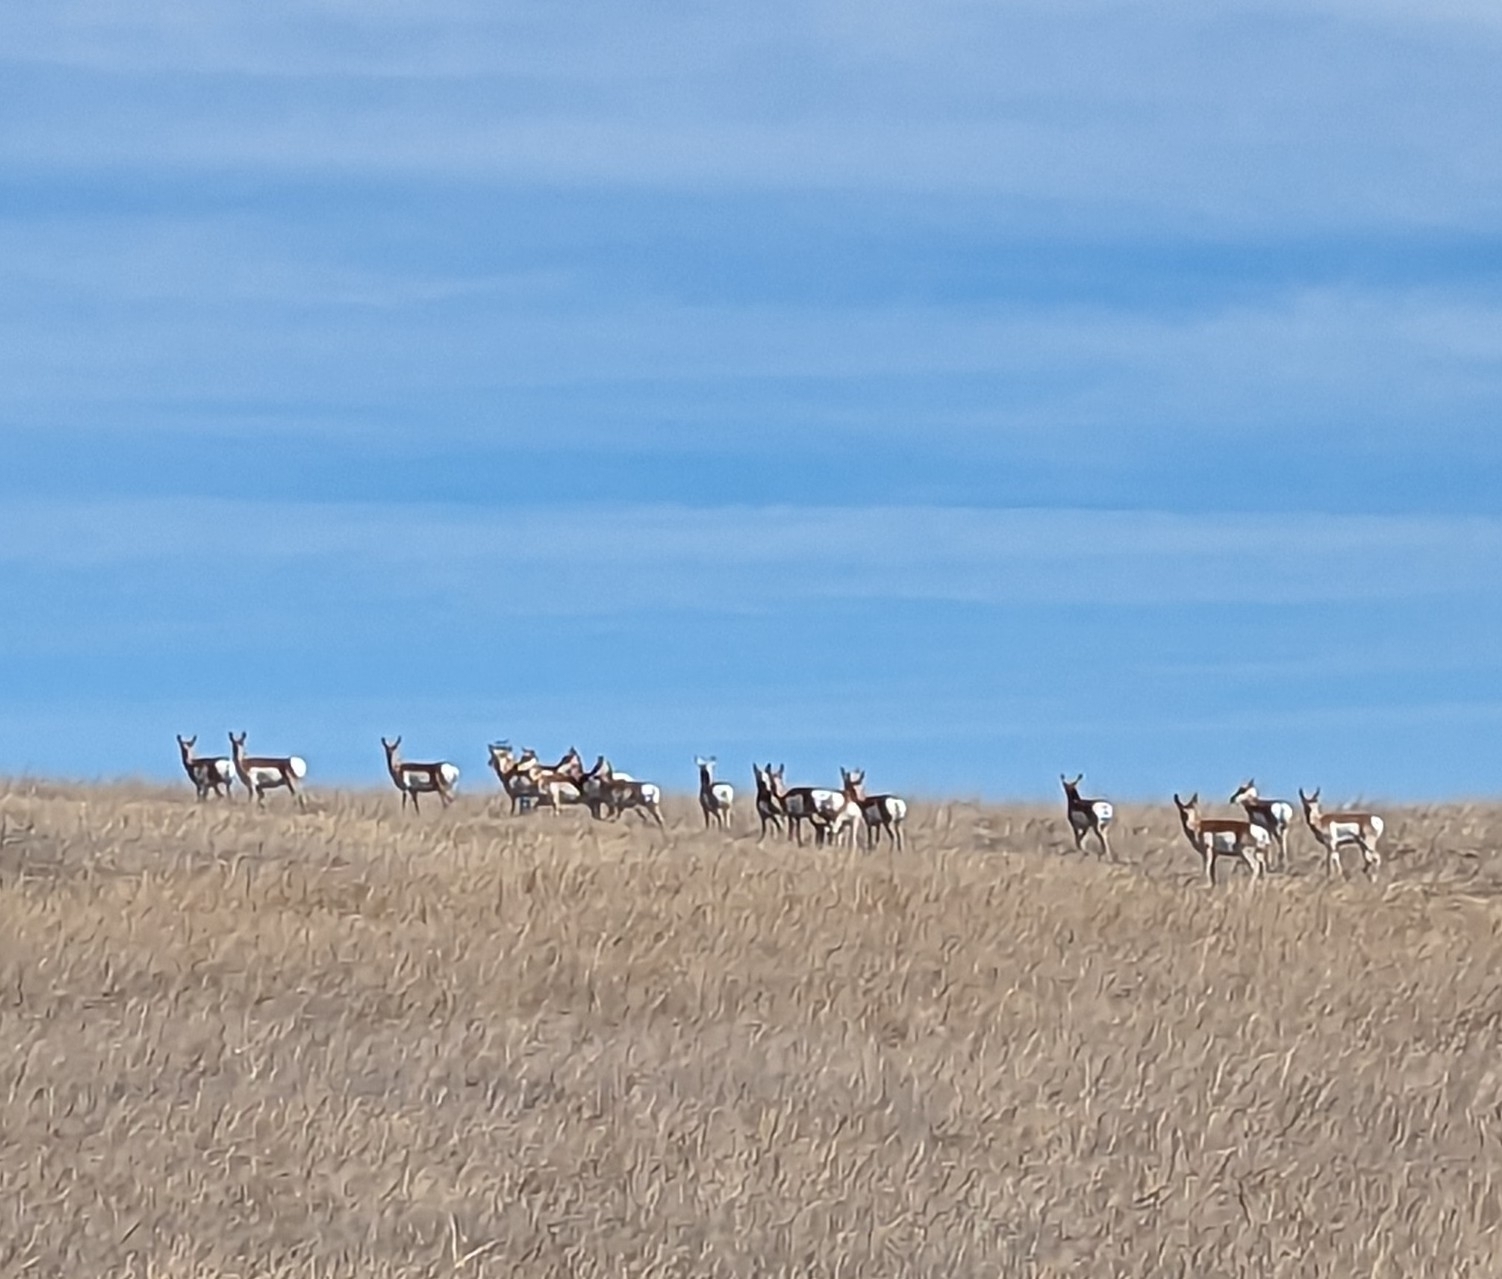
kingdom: Animalia
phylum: Chordata
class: Mammalia
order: Artiodactyla
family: Antilocapridae
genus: Antilocapra
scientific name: Antilocapra americana
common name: Pronghorn
